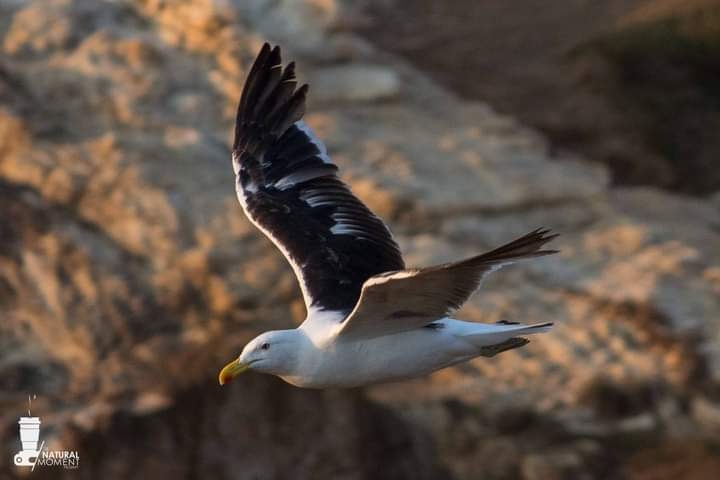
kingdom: Animalia
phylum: Chordata
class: Aves
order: Charadriiformes
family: Laridae
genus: Larus
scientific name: Larus dominicanus
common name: Kelp gull
